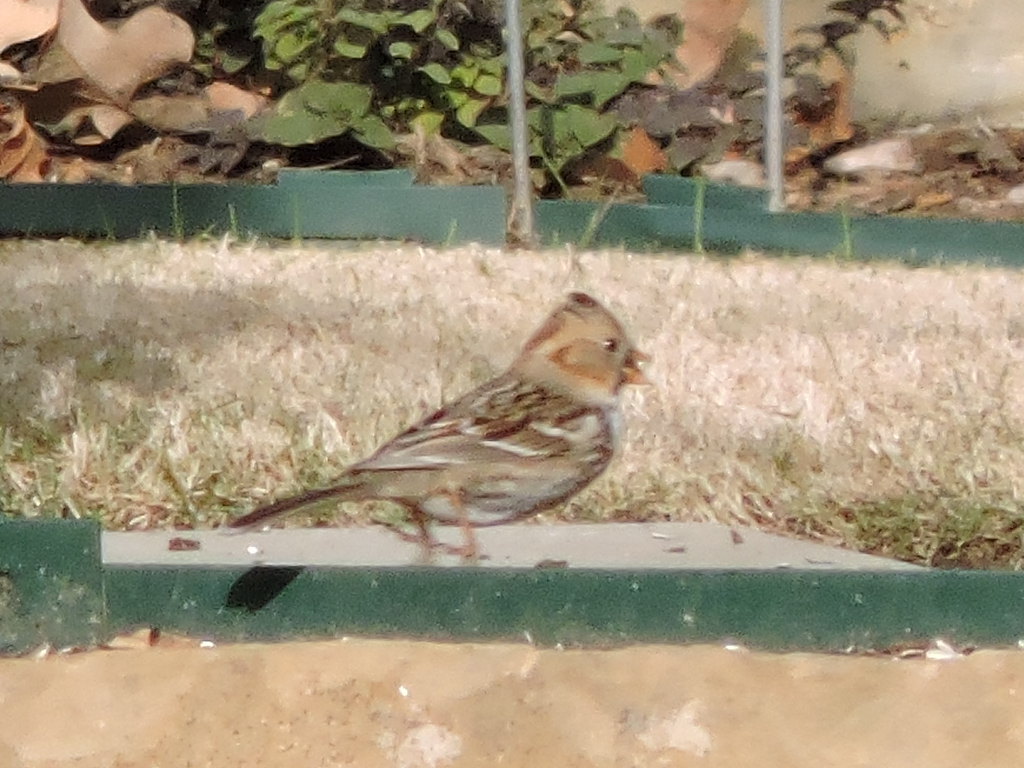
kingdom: Animalia
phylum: Chordata
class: Aves
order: Passeriformes
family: Passerellidae
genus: Zonotrichia
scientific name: Zonotrichia querula
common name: Harris's sparrow
